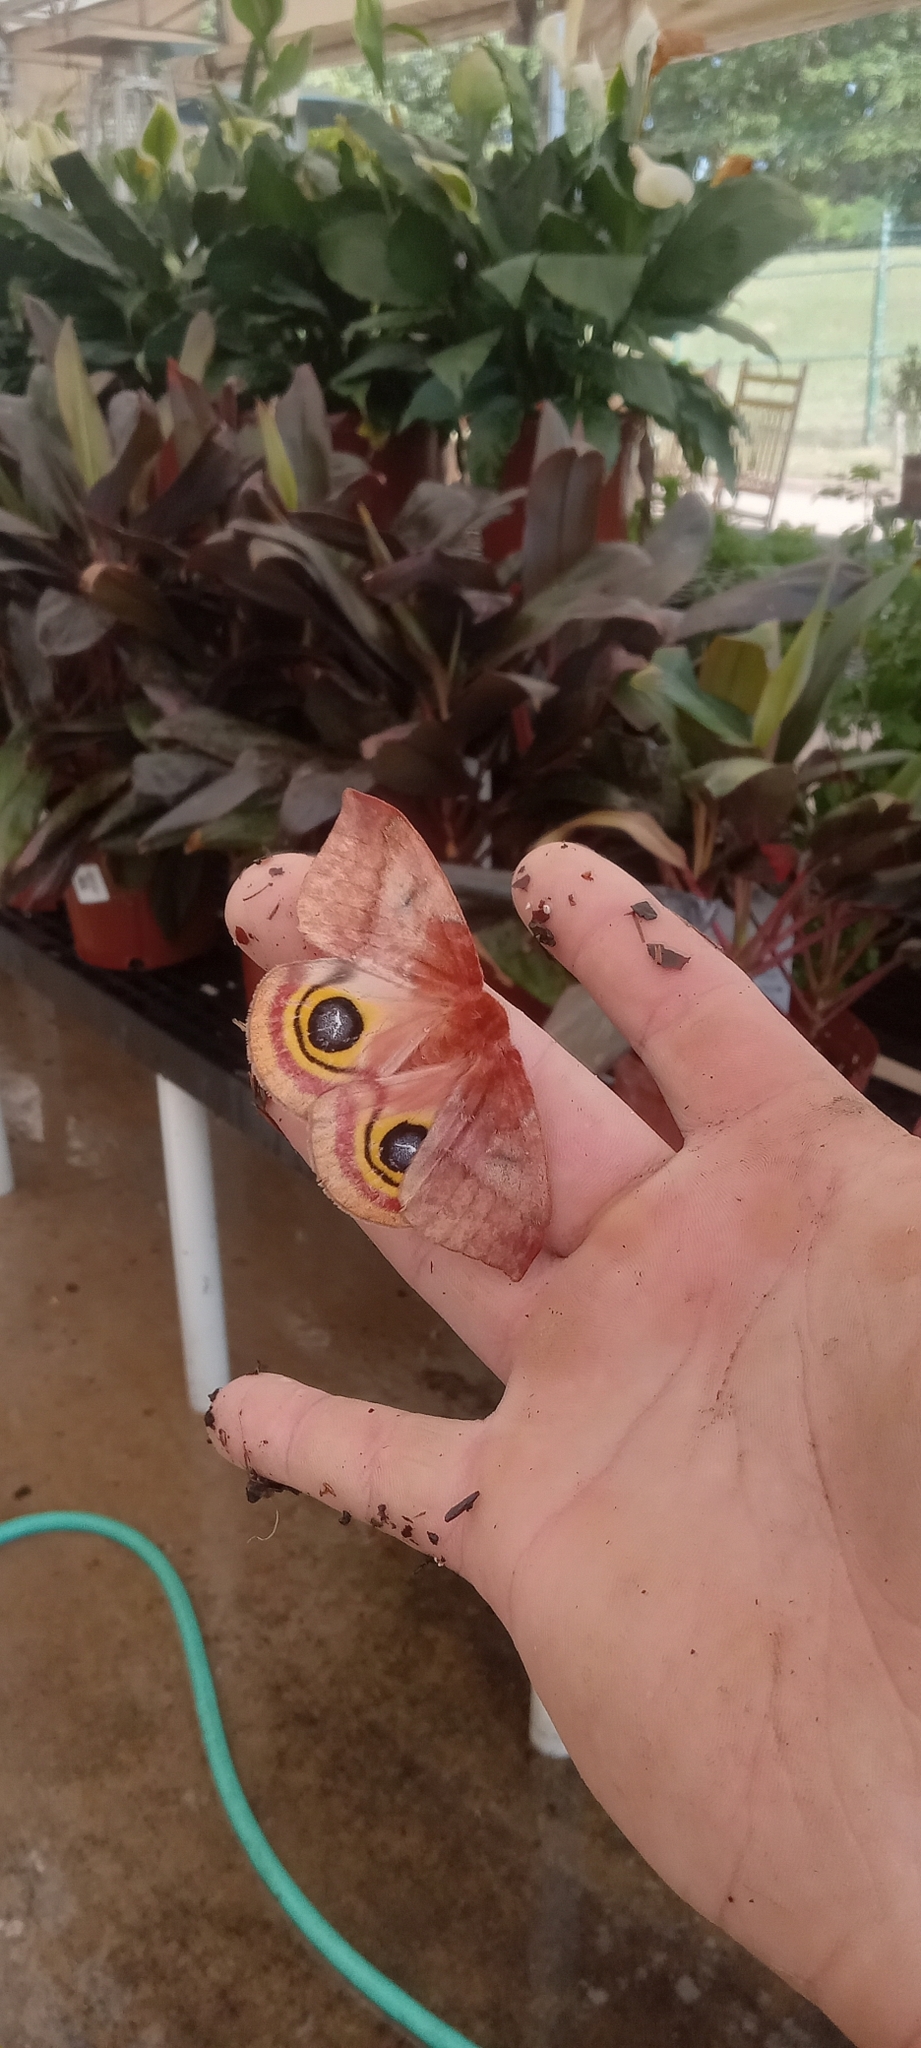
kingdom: Animalia
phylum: Arthropoda
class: Insecta
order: Lepidoptera
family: Saturniidae
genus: Automeris
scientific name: Automeris io
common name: Io moth
